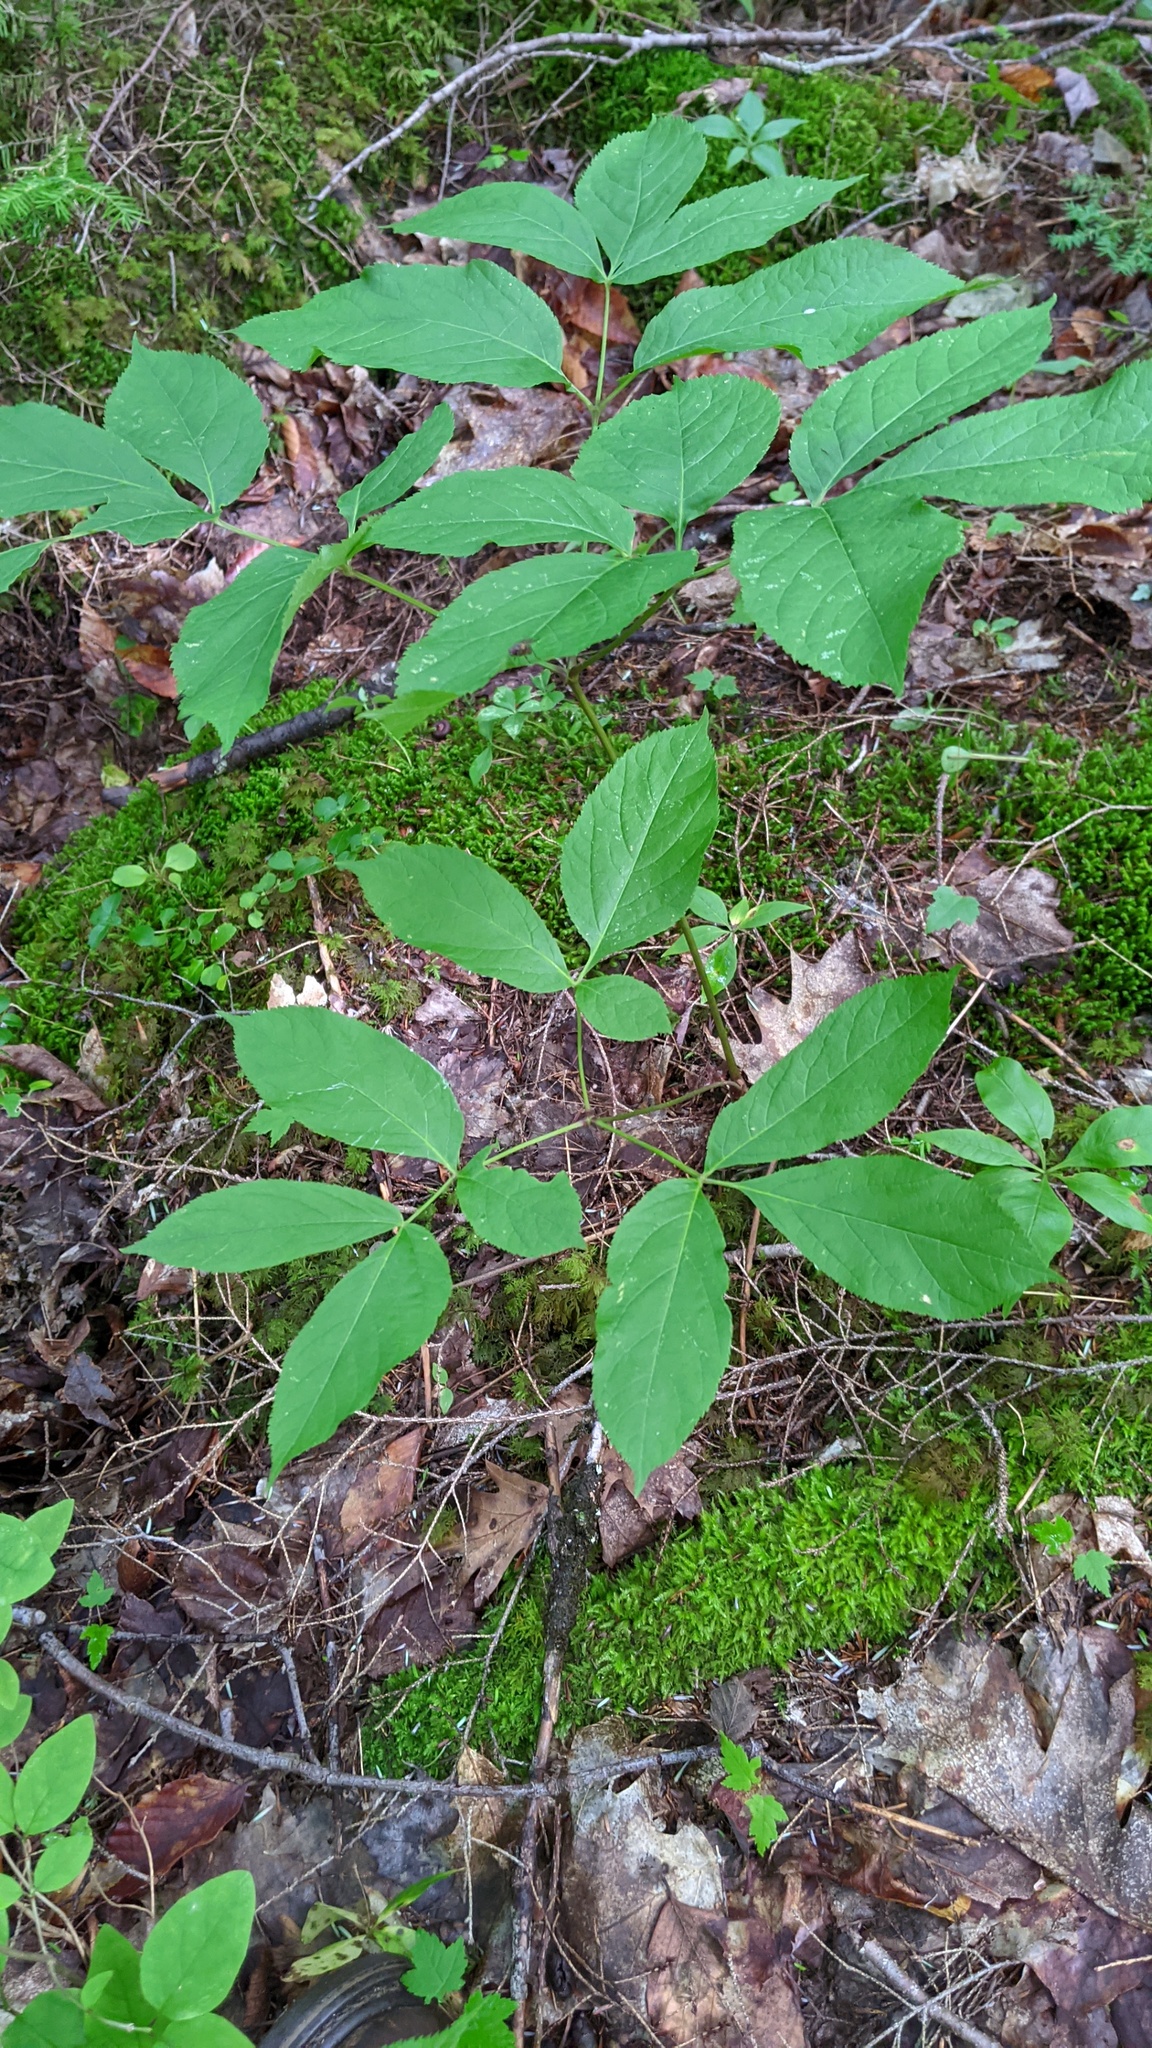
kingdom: Plantae
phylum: Tracheophyta
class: Magnoliopsida
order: Apiales
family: Araliaceae
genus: Aralia
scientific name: Aralia nudicaulis
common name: Wild sarsaparilla
